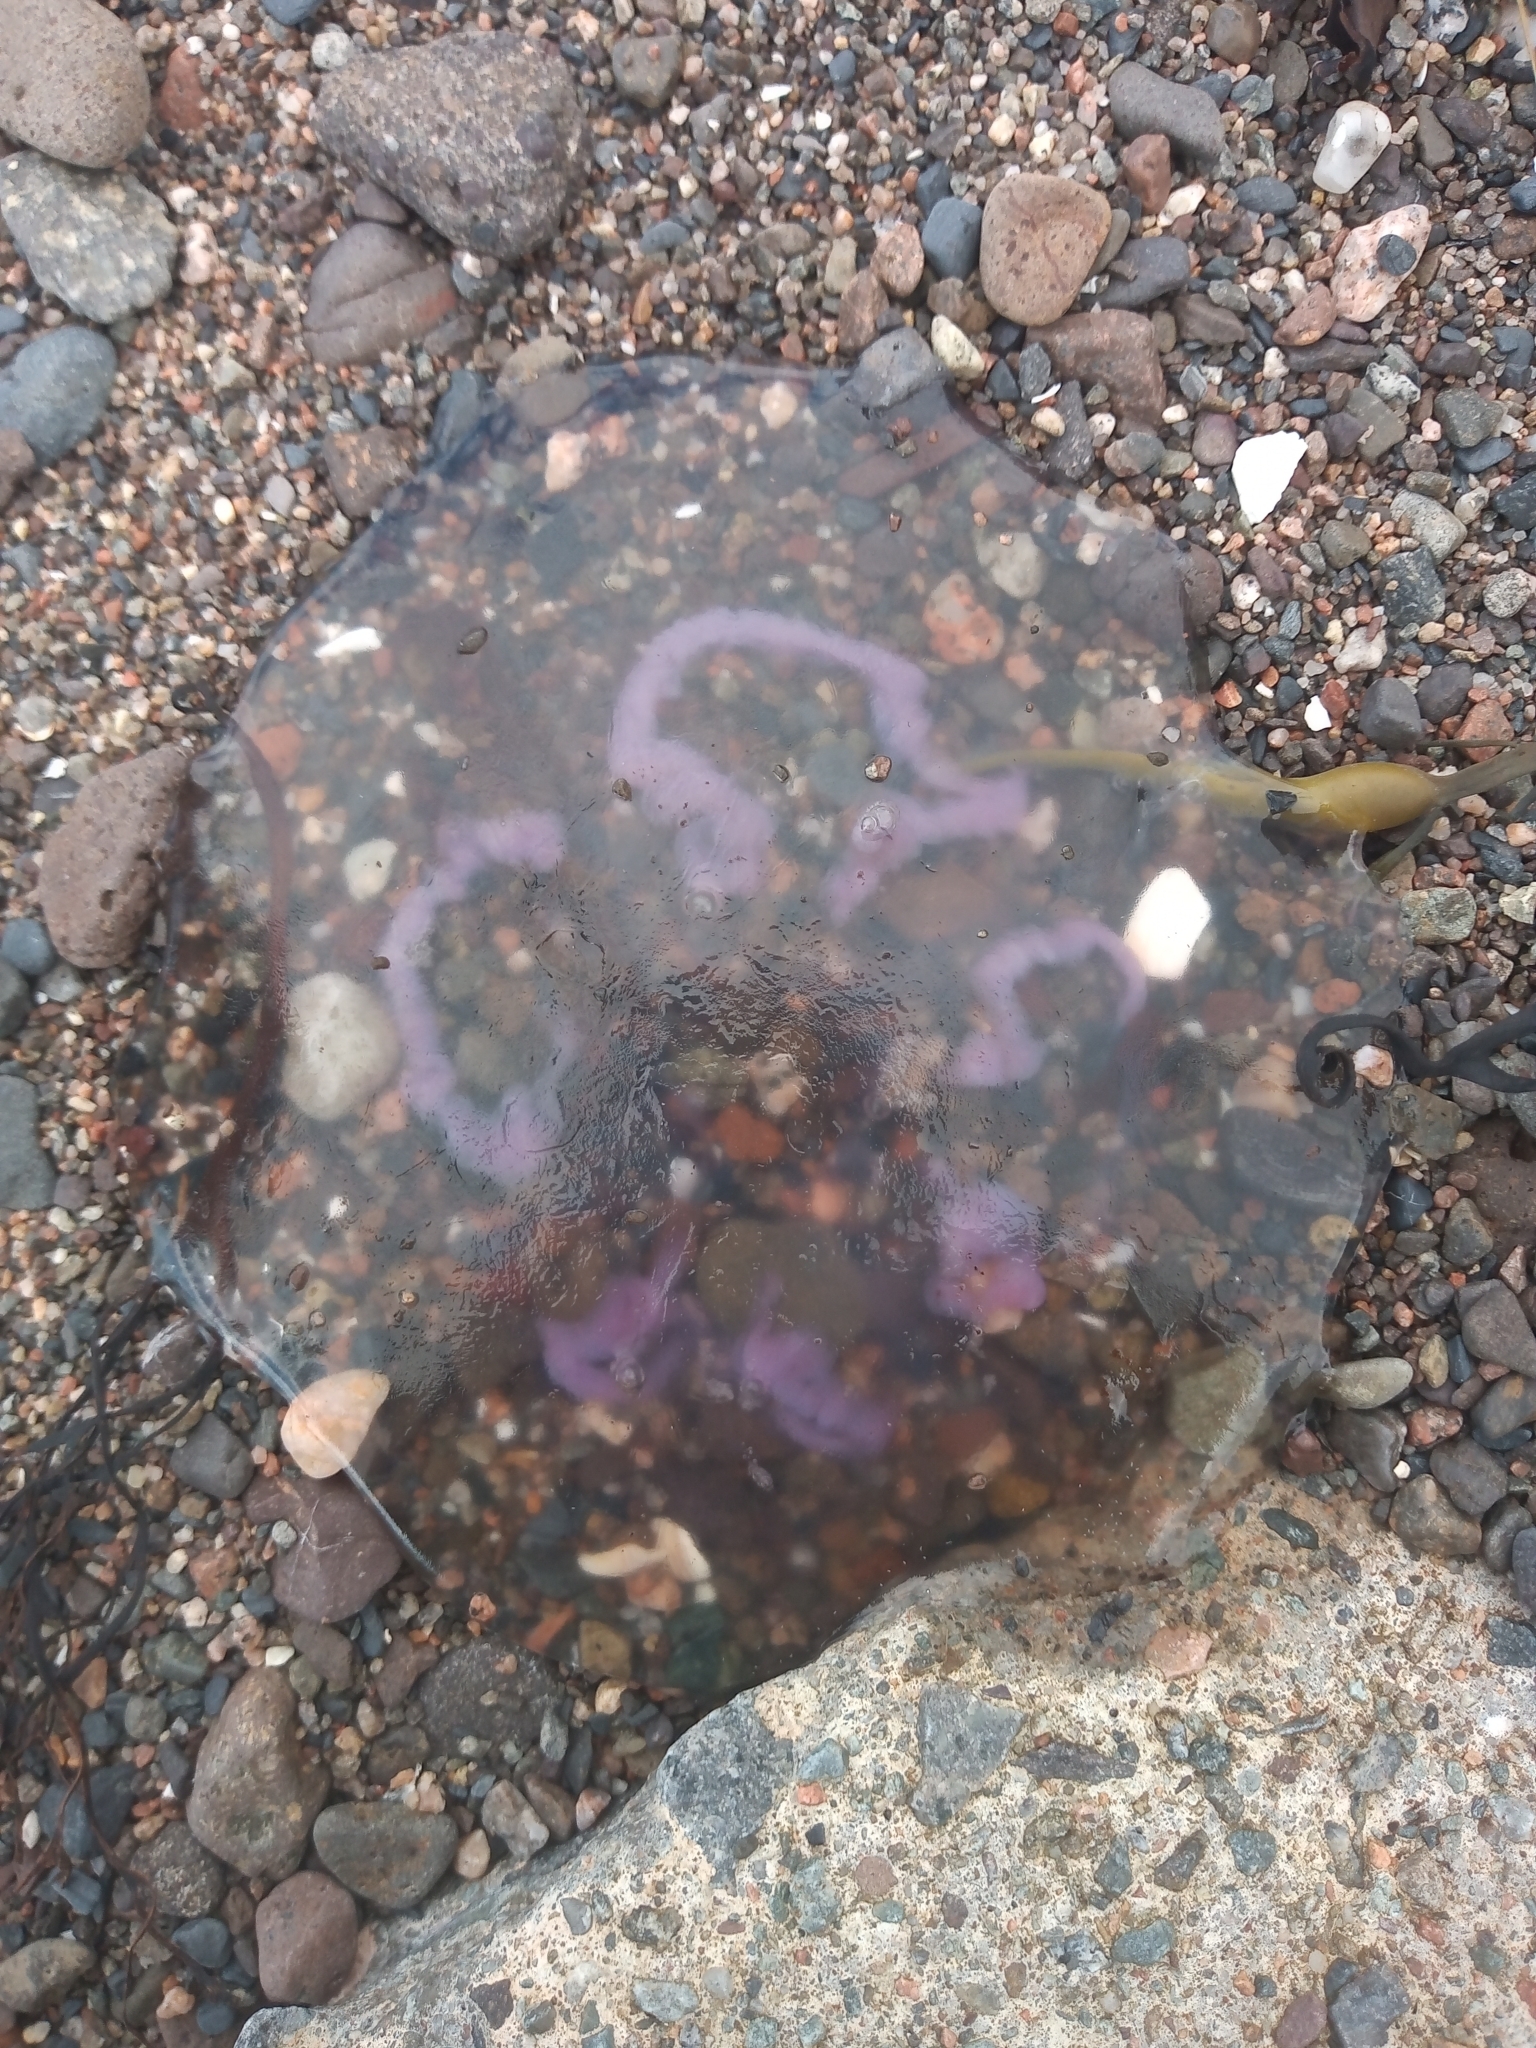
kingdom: Animalia
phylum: Cnidaria
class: Scyphozoa
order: Semaeostomeae
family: Ulmaridae
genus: Aurelia
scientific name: Aurelia aurita
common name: Moon jellyfish
